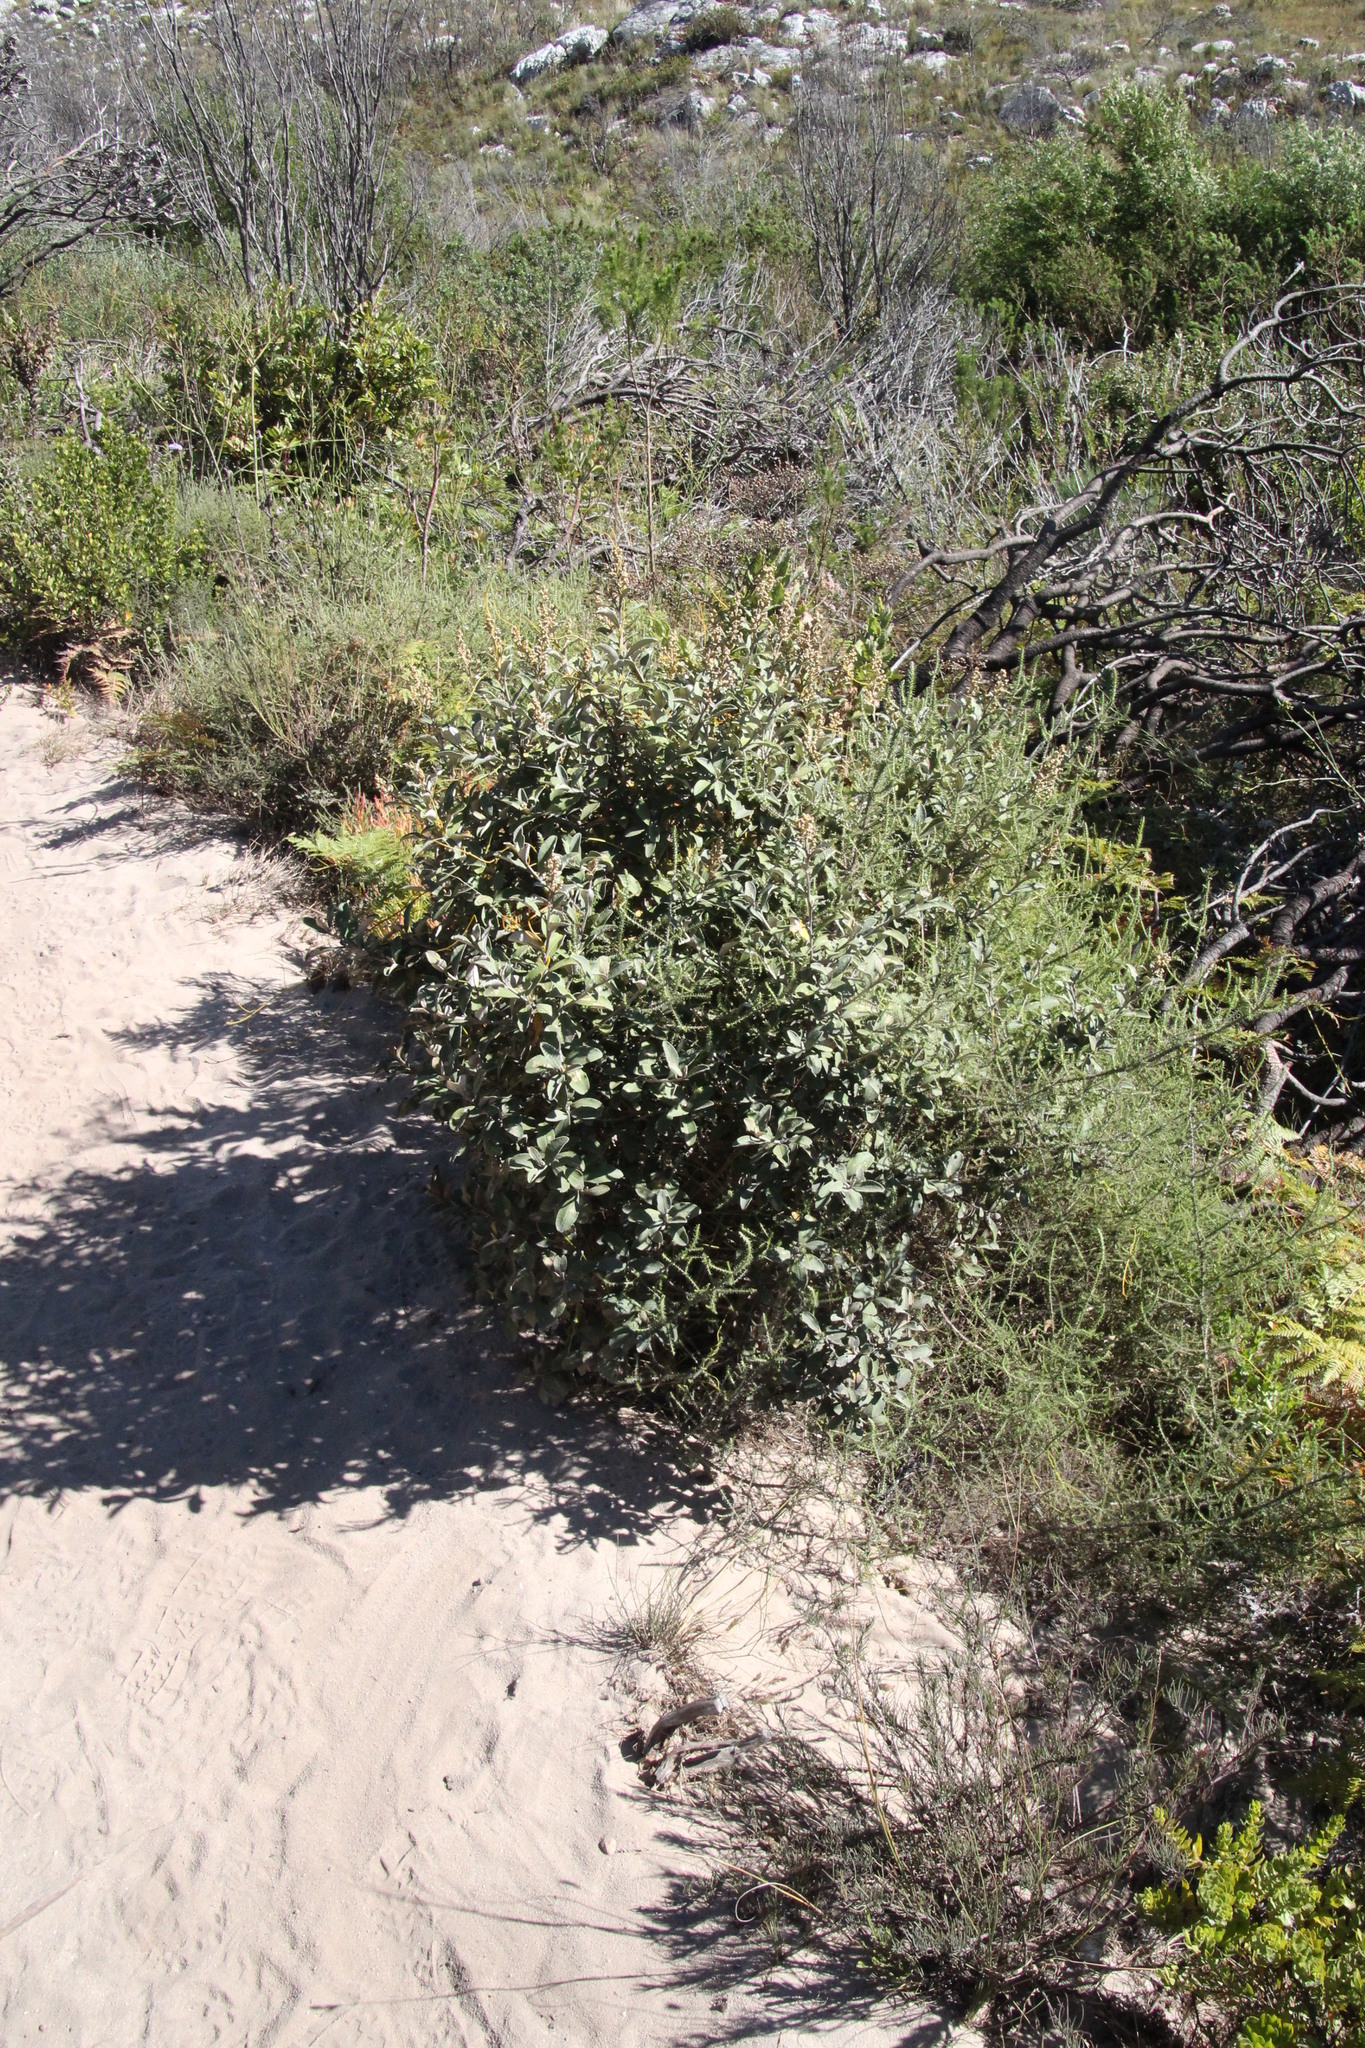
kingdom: Plantae
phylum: Tracheophyta
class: Magnoliopsida
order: Asterales
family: Asteraceae
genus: Tarchonanthus
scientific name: Tarchonanthus littoralis
